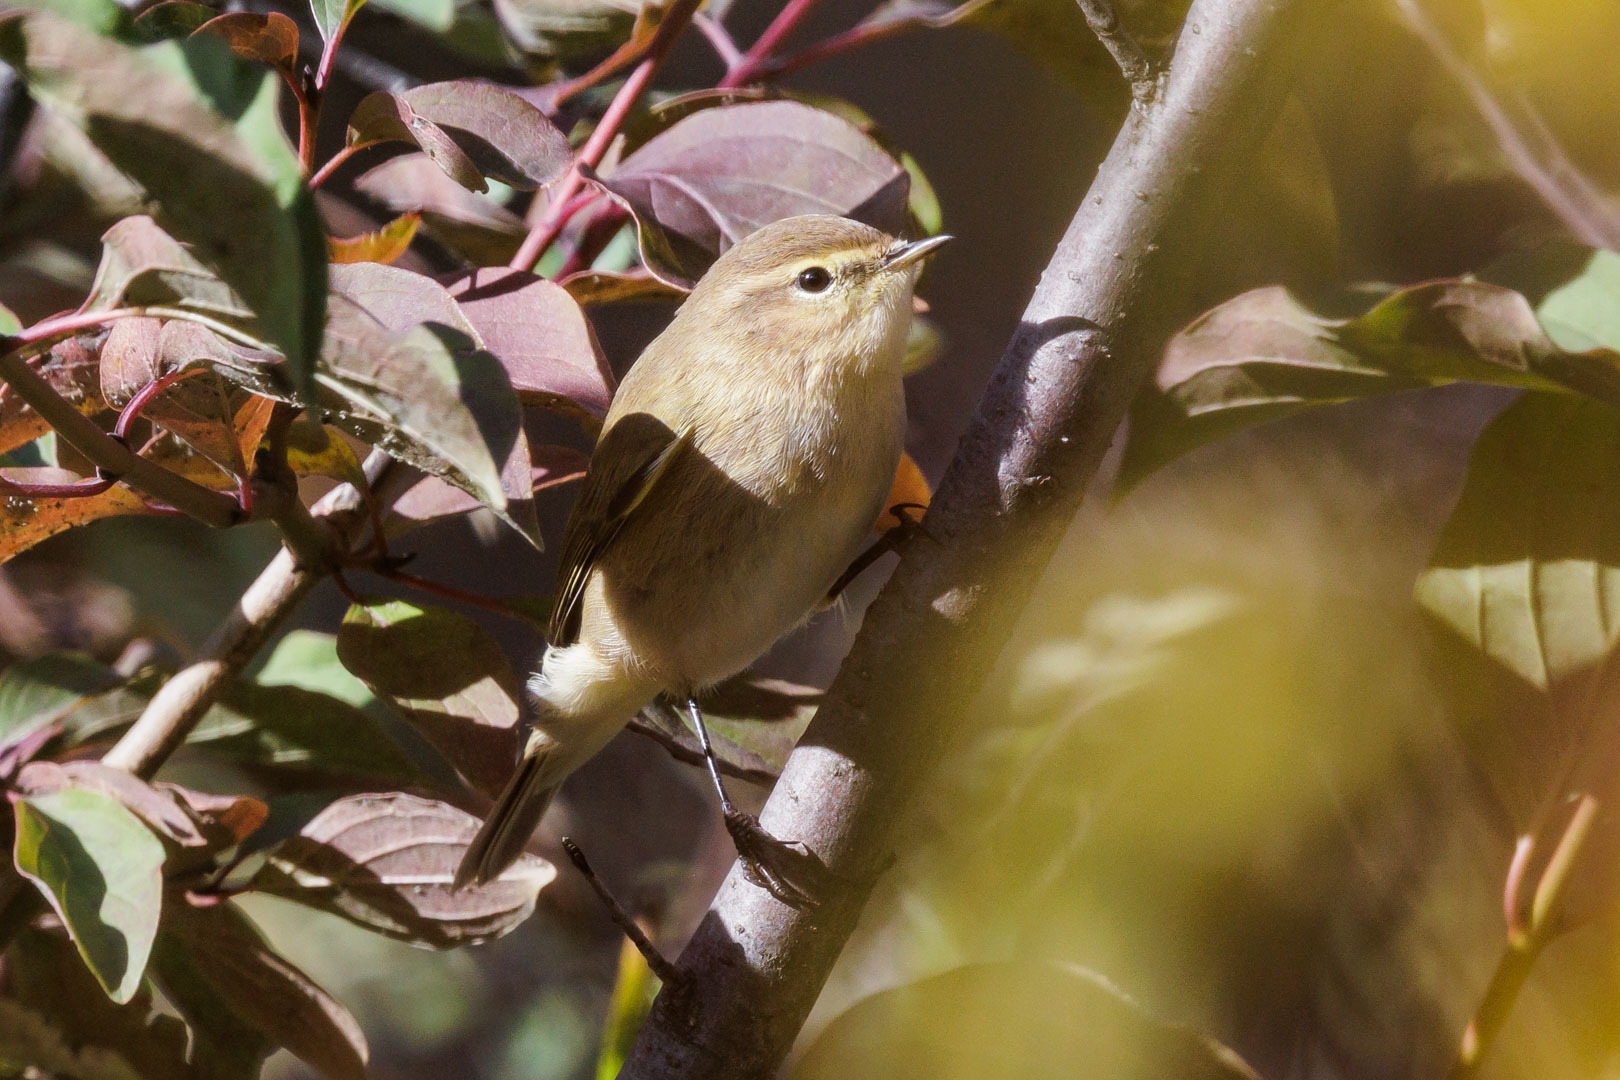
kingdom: Animalia
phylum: Chordata
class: Aves
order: Passeriformes
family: Phylloscopidae
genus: Phylloscopus
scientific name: Phylloscopus sindianus
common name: Mountain chiffchaff
